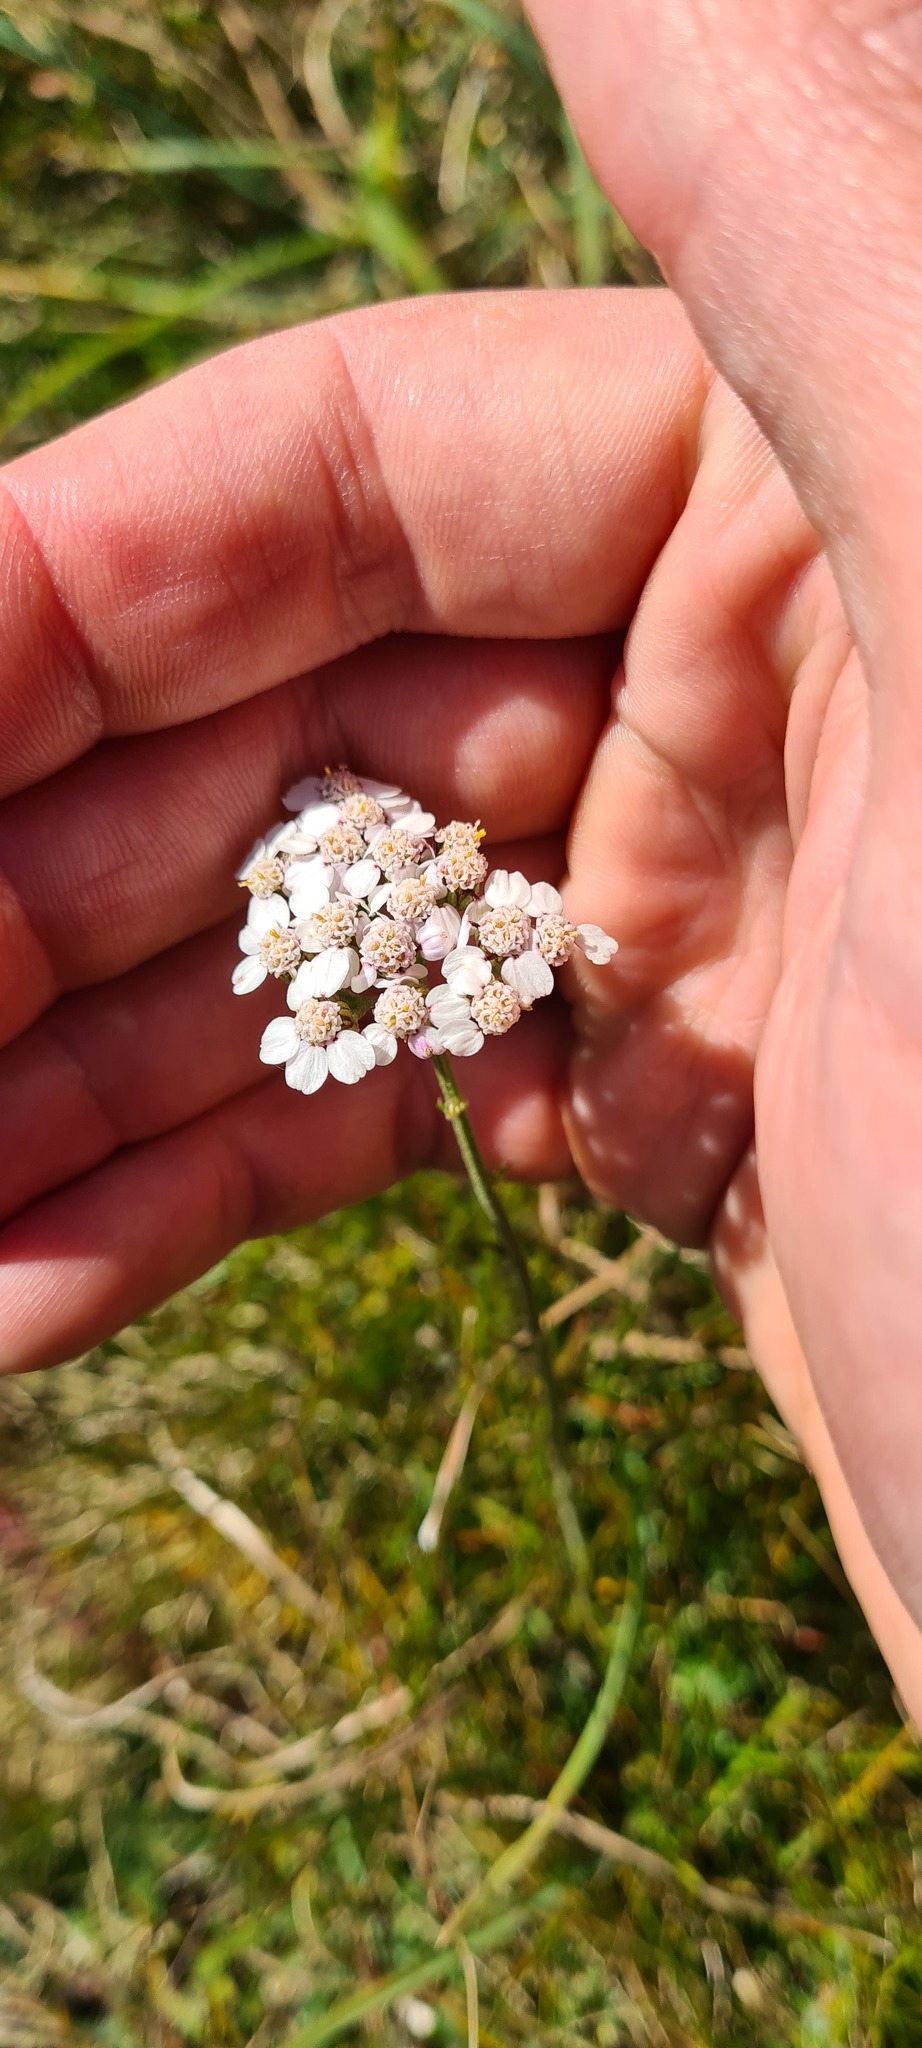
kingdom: Plantae
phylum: Tracheophyta
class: Magnoliopsida
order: Asterales
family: Asteraceae
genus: Achillea
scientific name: Achillea millefolium
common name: Yarrow
